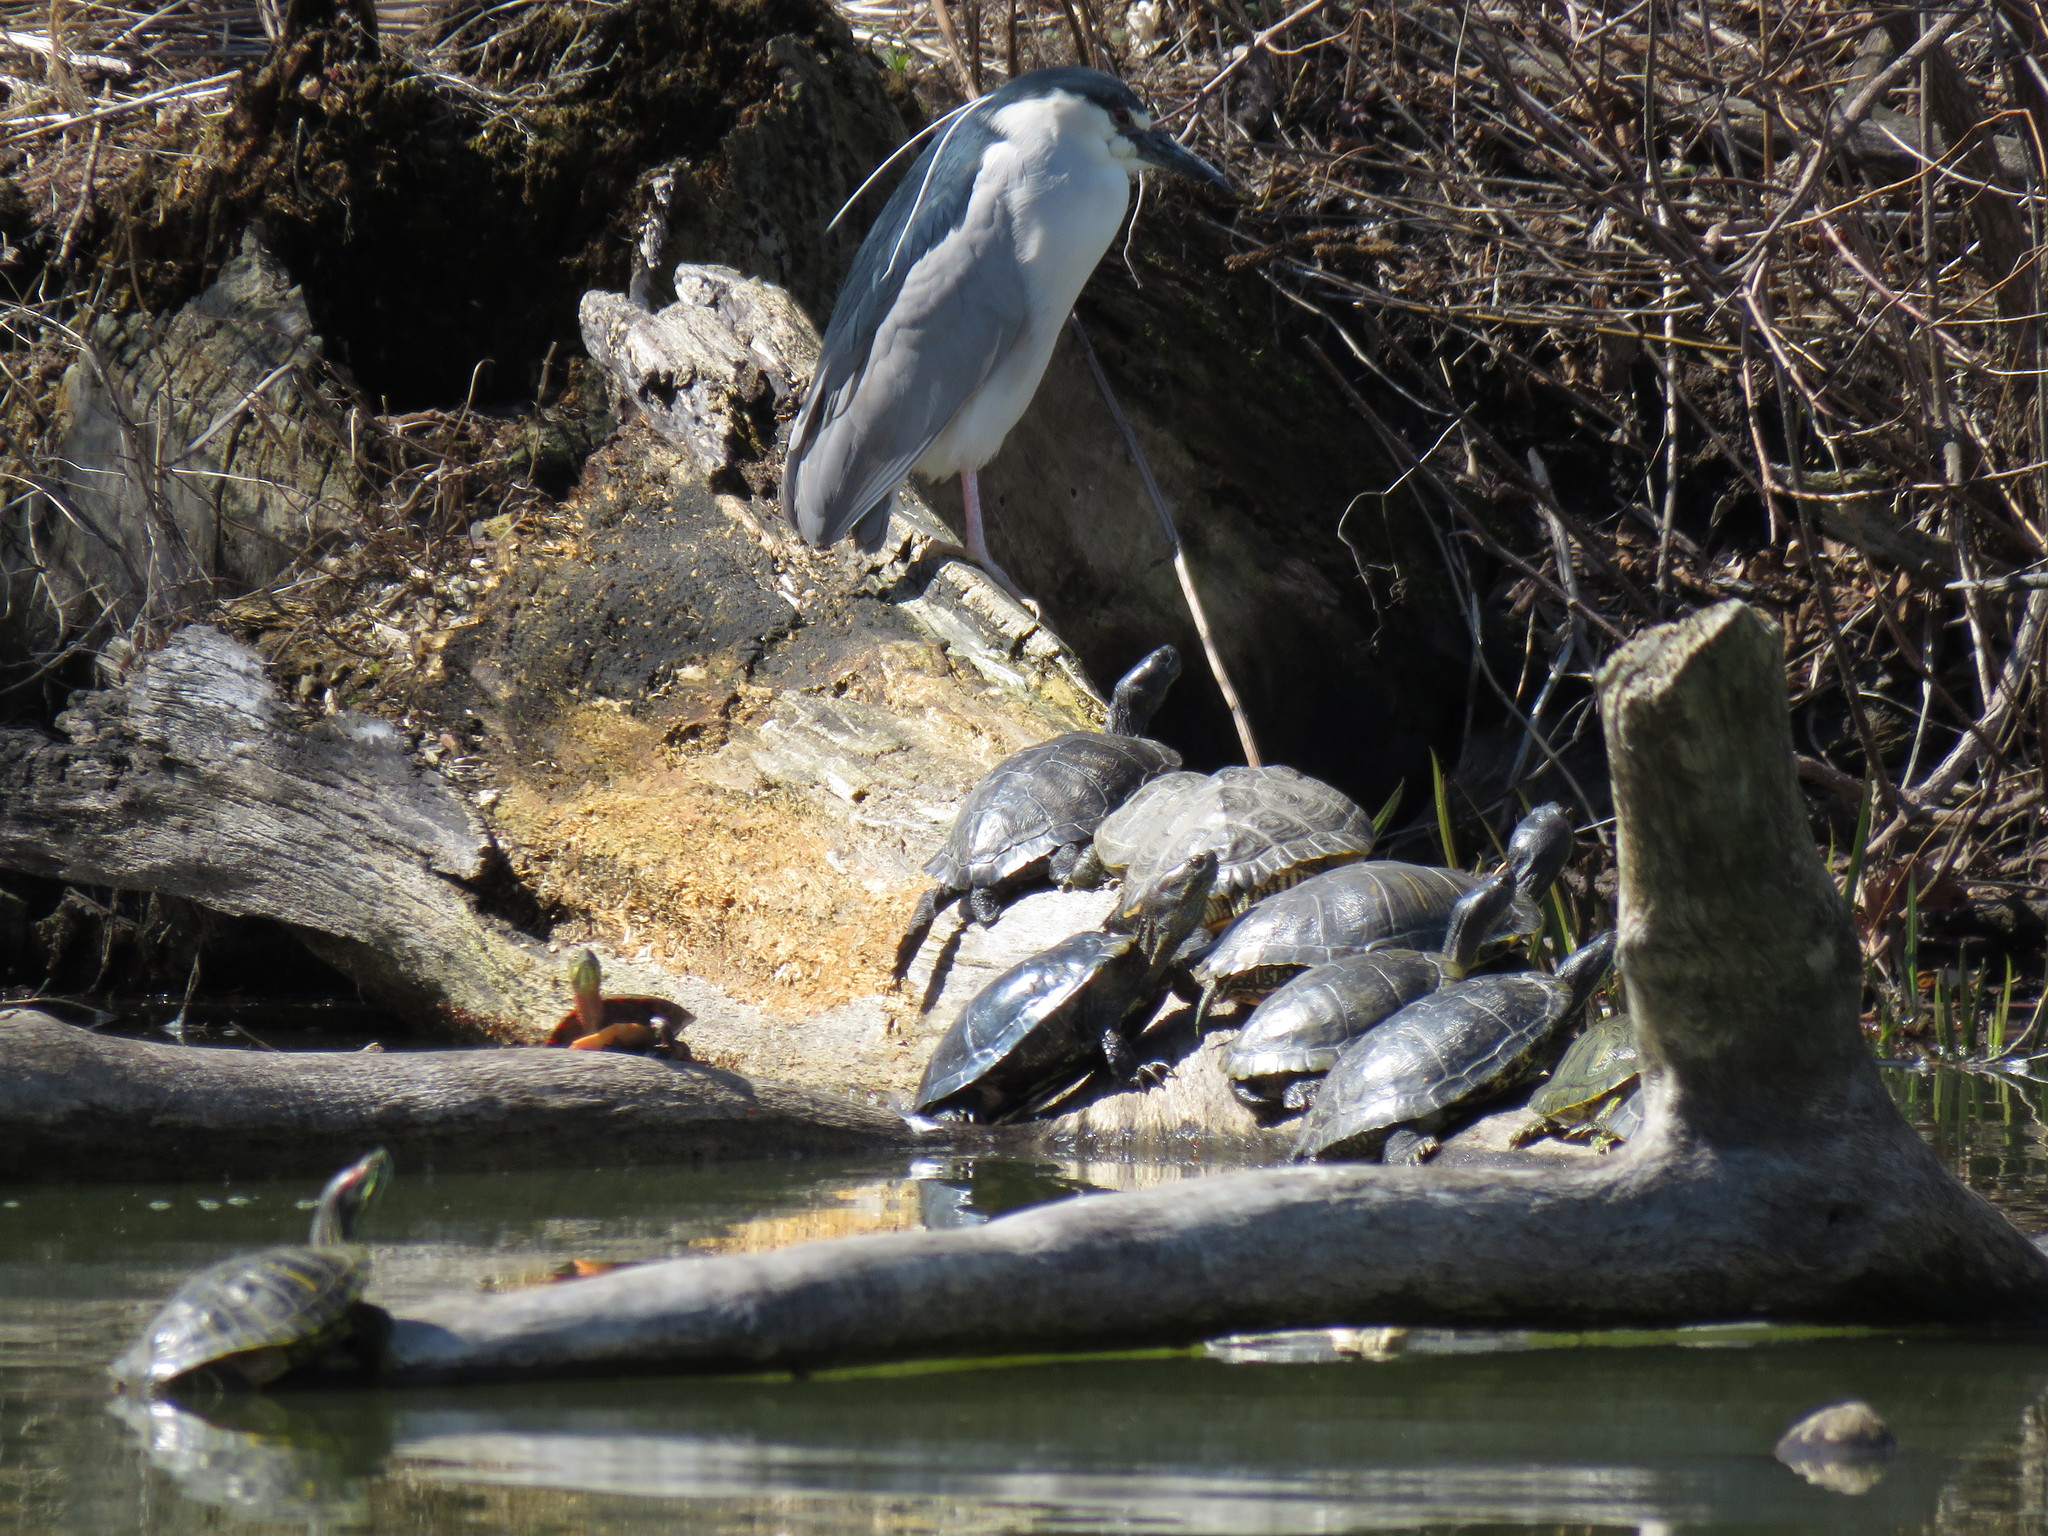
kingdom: Animalia
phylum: Chordata
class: Testudines
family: Emydidae
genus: Trachemys
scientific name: Trachemys scripta
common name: Slider
